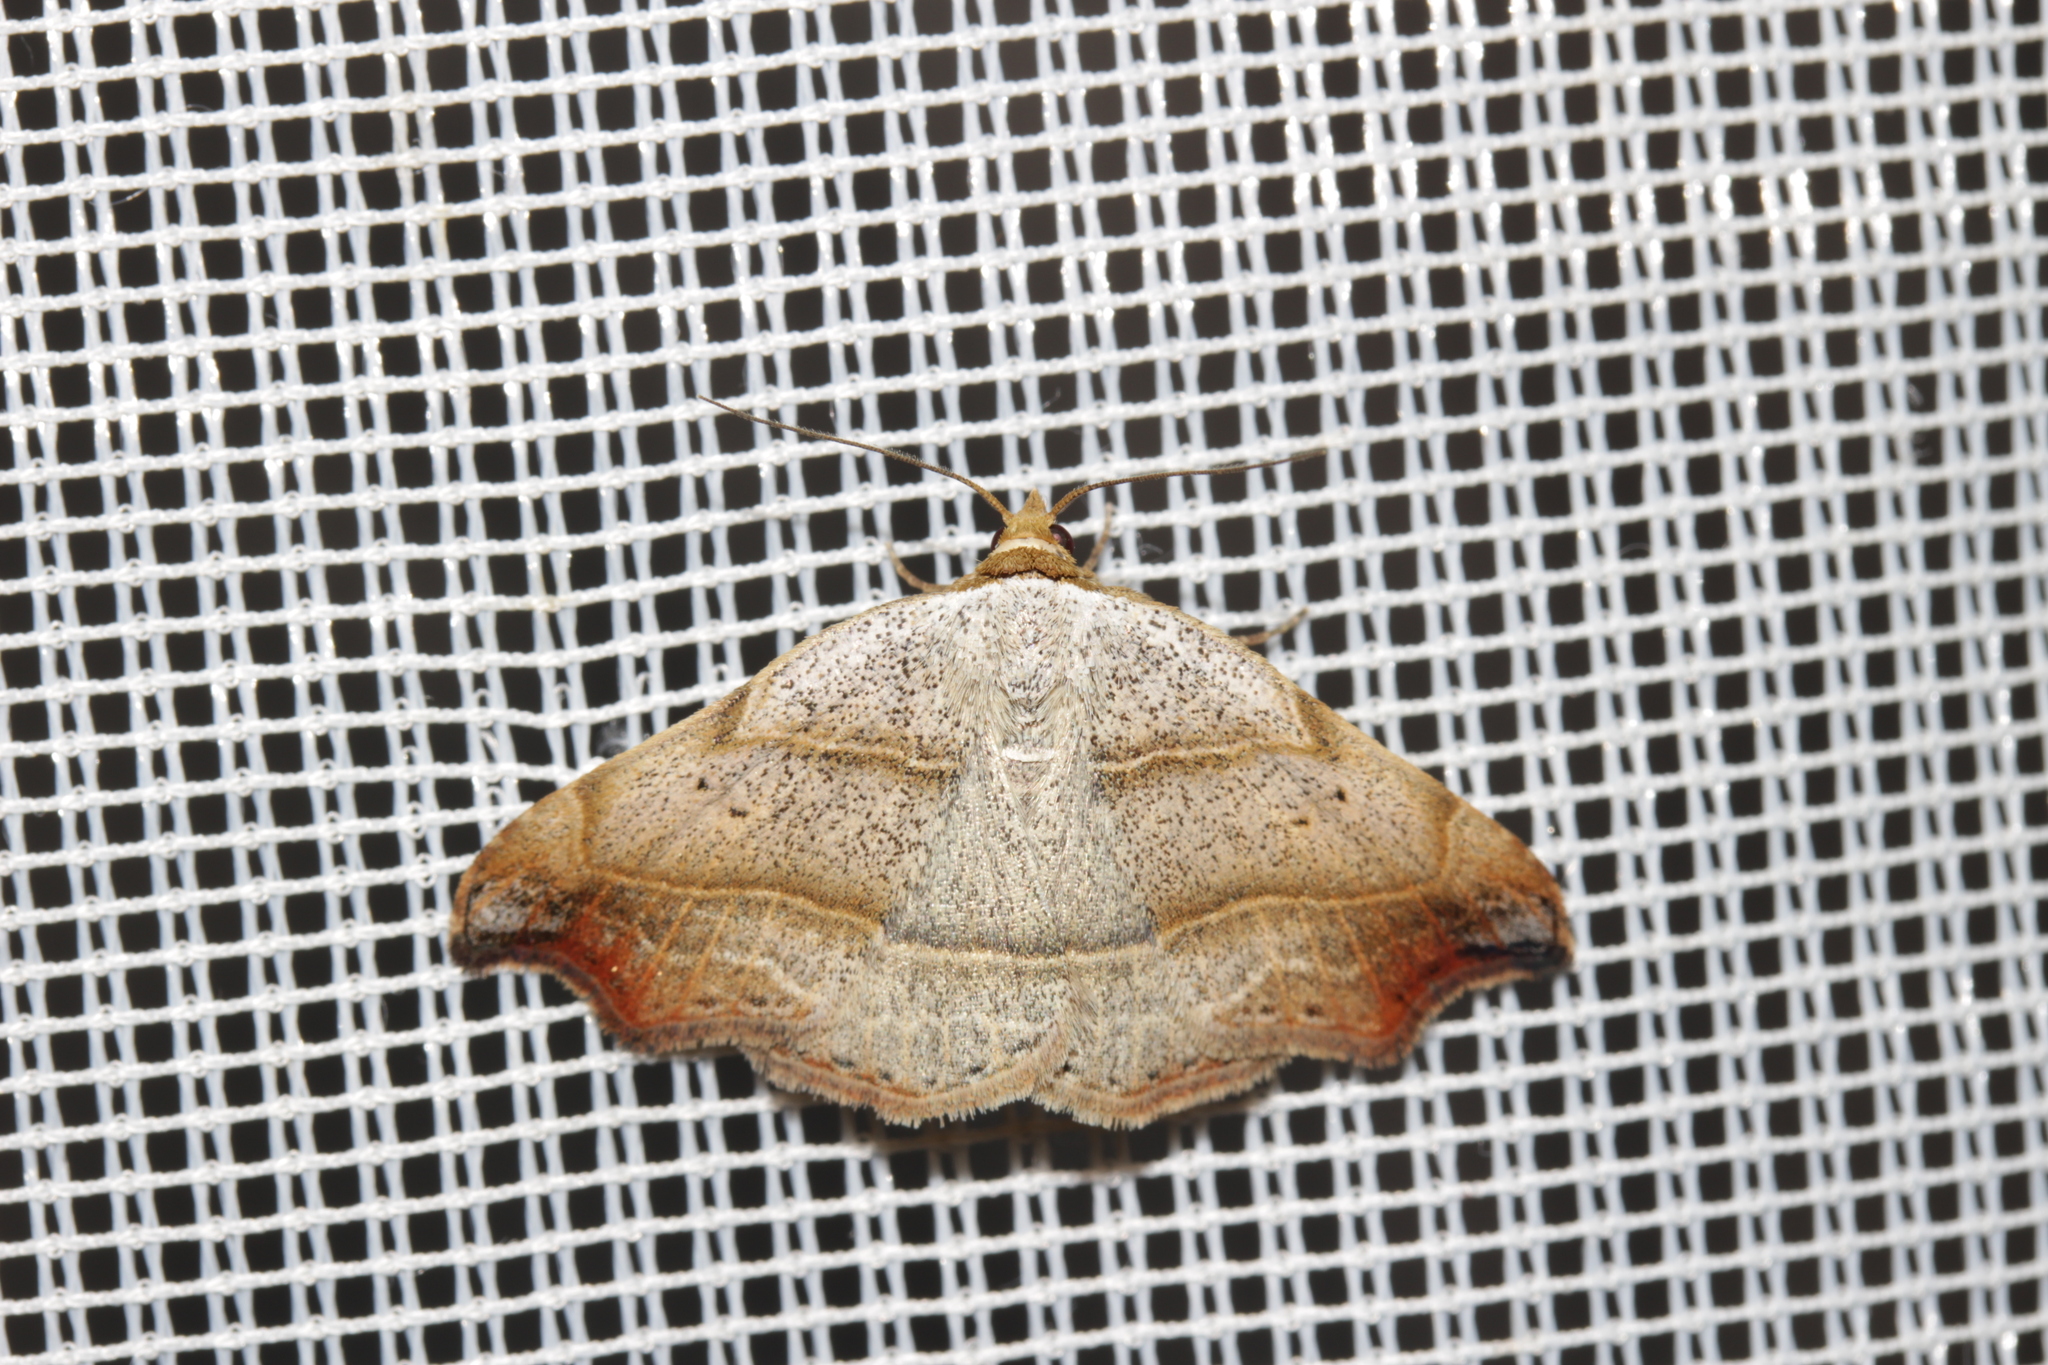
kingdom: Animalia
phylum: Arthropoda
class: Insecta
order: Lepidoptera
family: Erebidae
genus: Laspeyria
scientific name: Laspeyria flexula
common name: Beautiful hook-tip
